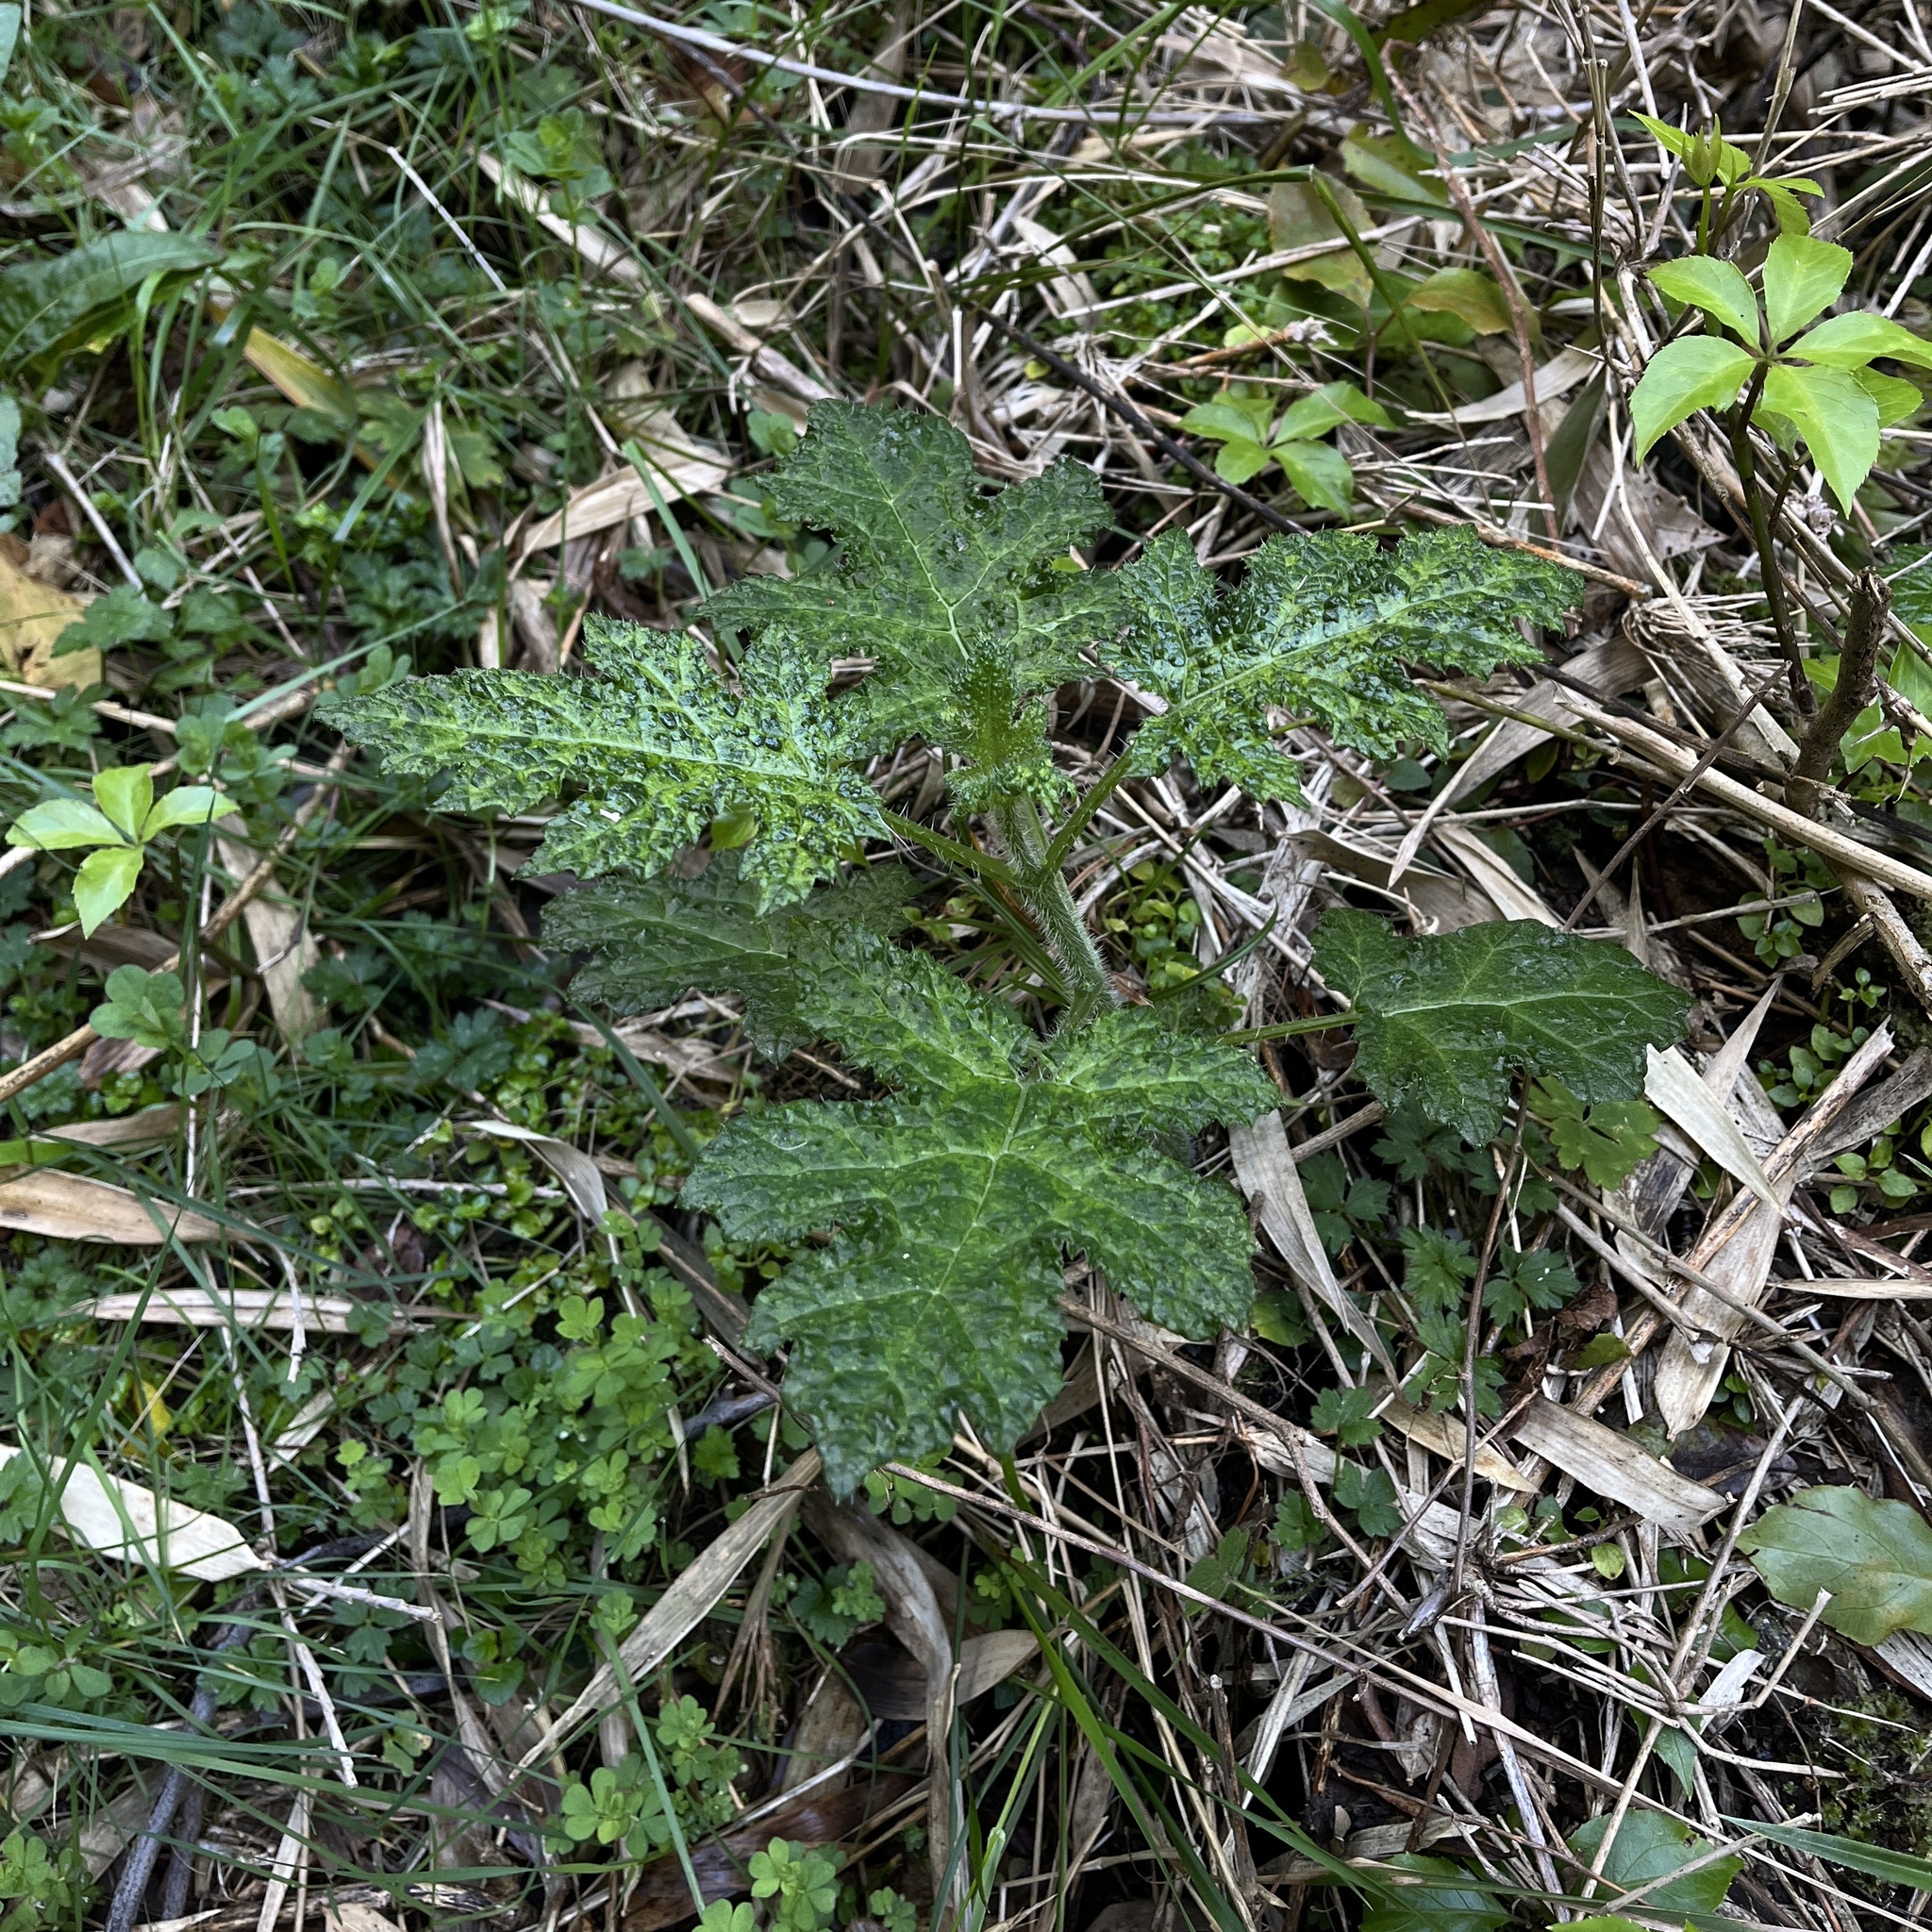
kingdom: Plantae
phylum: Tracheophyta
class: Magnoliopsida
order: Cornales
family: Loasaceae
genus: Loasa
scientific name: Loasa acanthifolia
